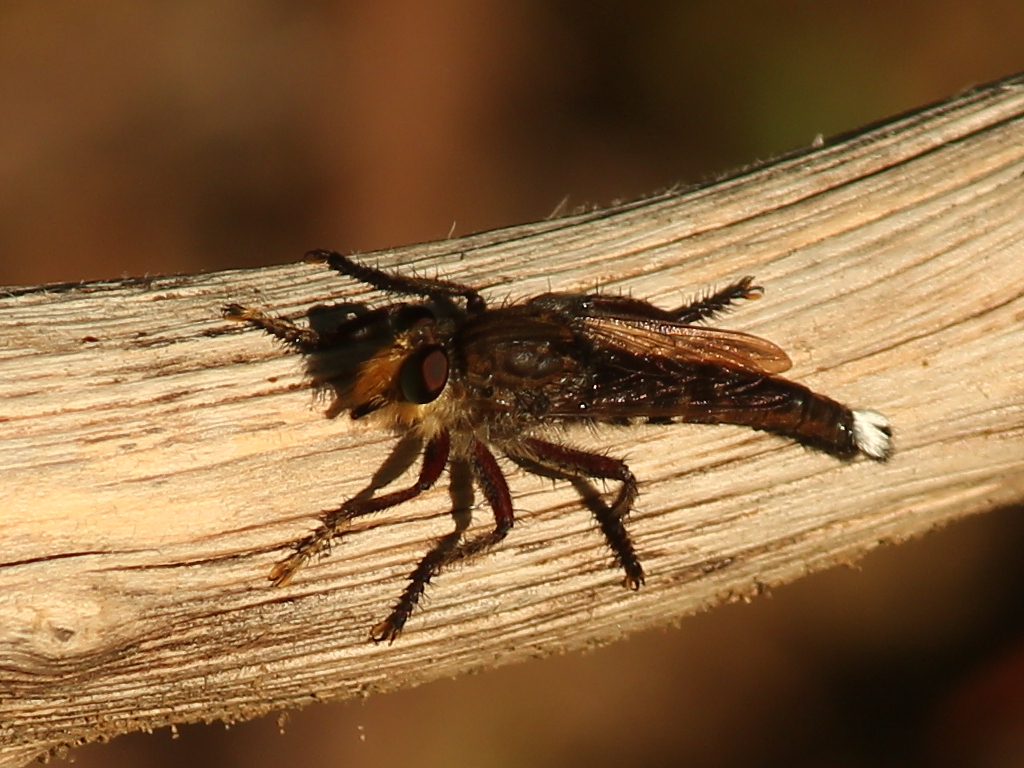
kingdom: Animalia
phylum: Arthropoda
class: Insecta
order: Diptera
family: Asilidae
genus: Promachus
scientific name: Promachus bastardii
